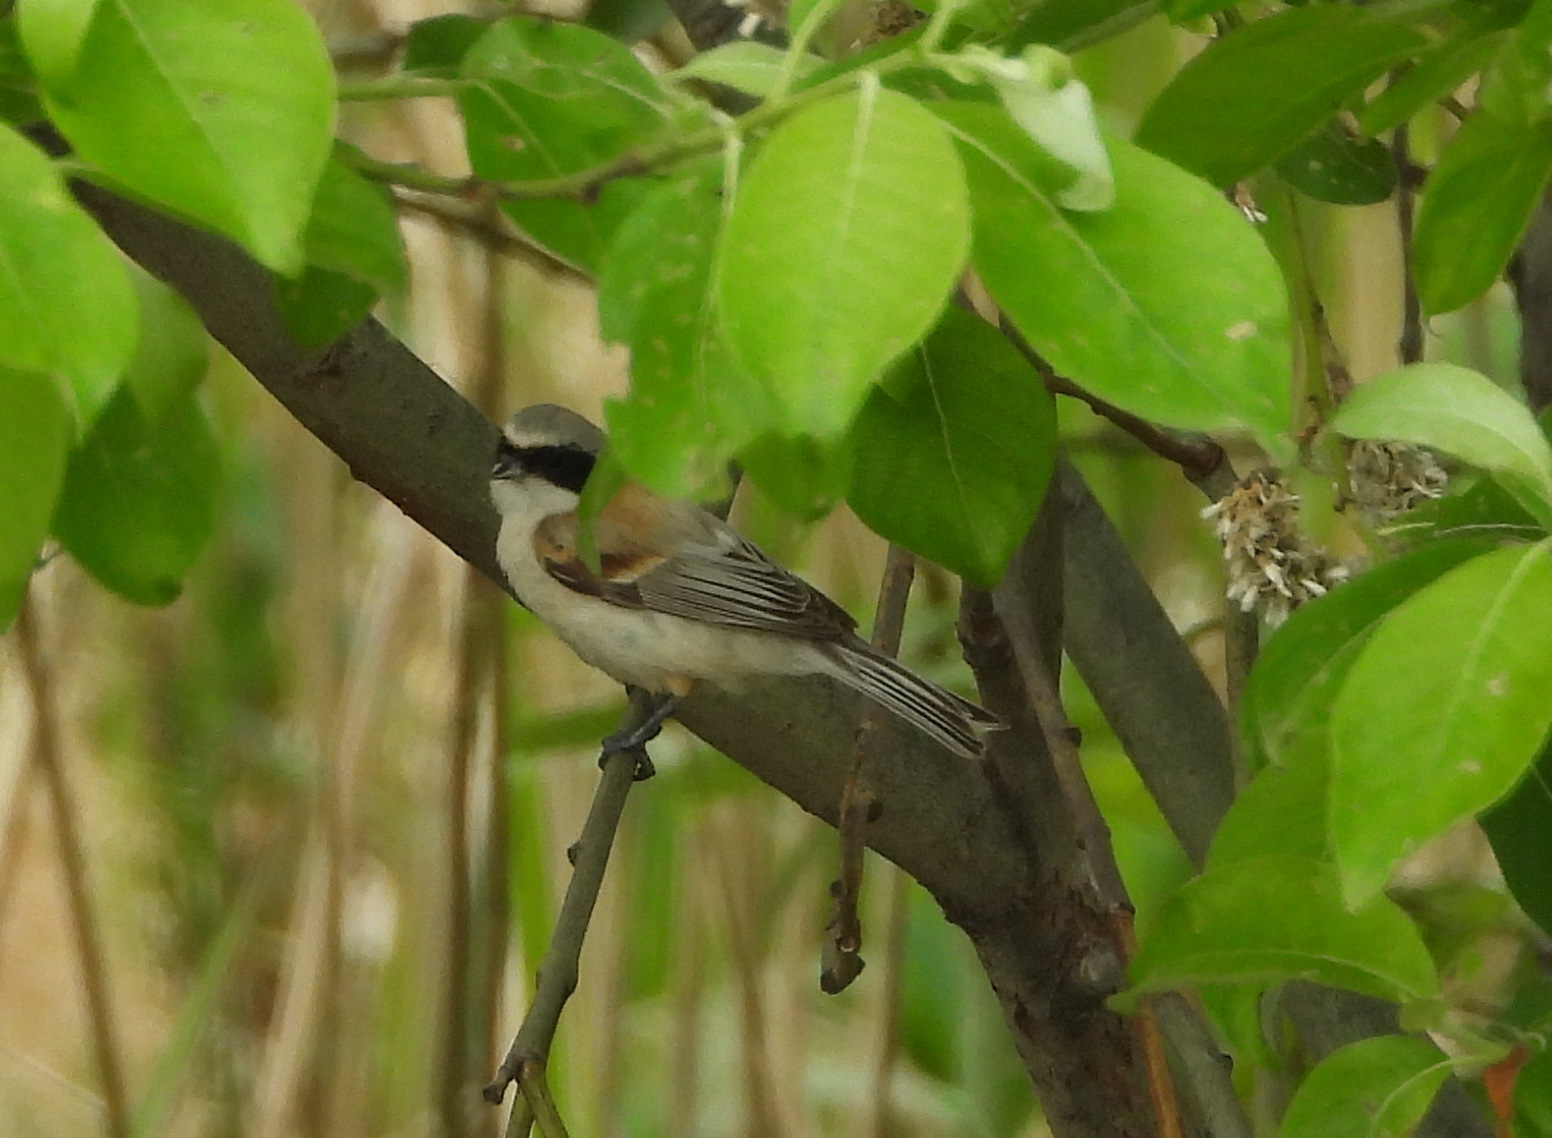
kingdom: Animalia
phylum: Chordata
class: Aves
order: Passeriformes
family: Remizidae
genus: Remiz
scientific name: Remiz pendulinus
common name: Eurasian penduline tit
